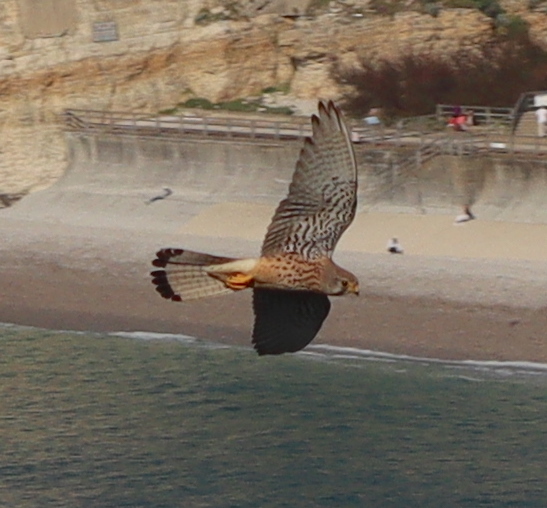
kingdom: Animalia
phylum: Chordata
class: Aves
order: Falconiformes
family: Falconidae
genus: Falco
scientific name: Falco tinnunculus
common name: Common kestrel
